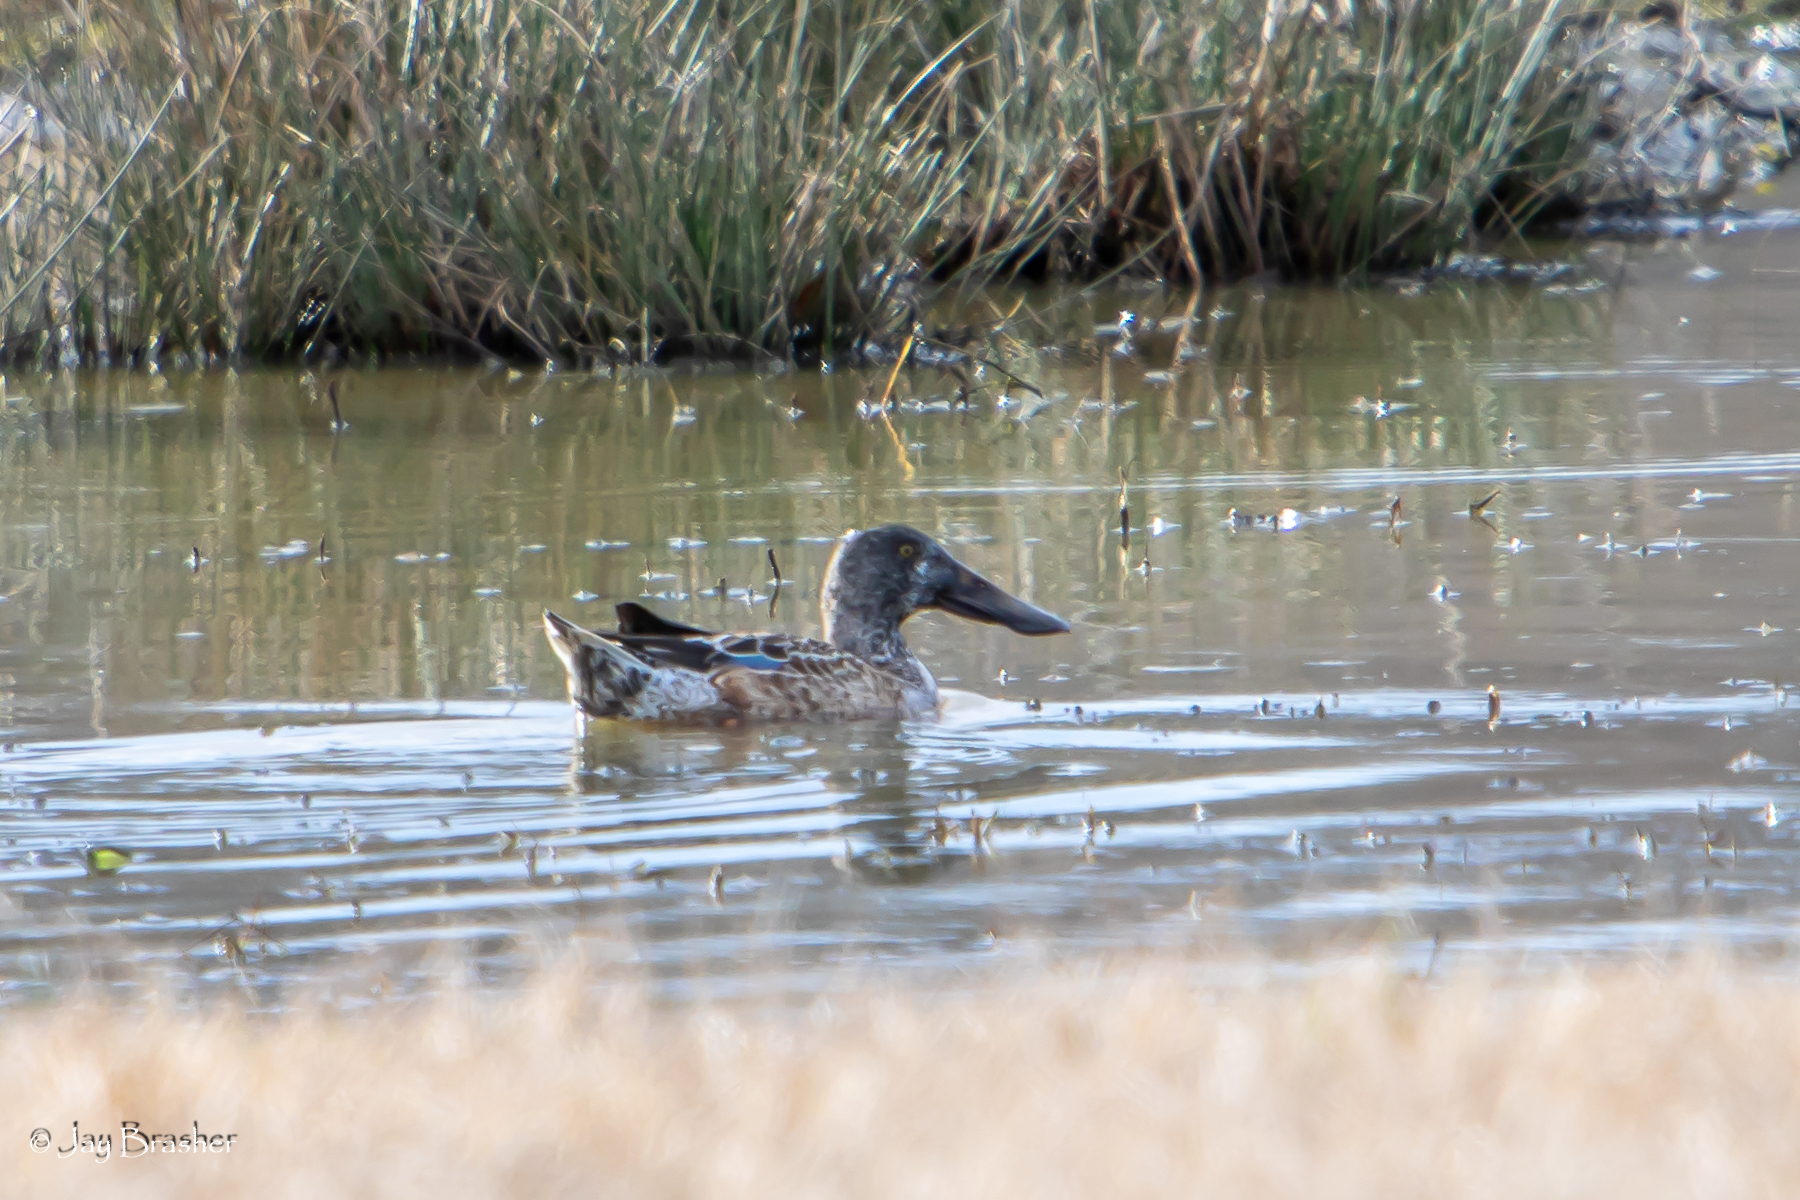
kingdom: Animalia
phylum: Chordata
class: Aves
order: Anseriformes
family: Anatidae
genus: Spatula
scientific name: Spatula clypeata
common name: Northern shoveler
